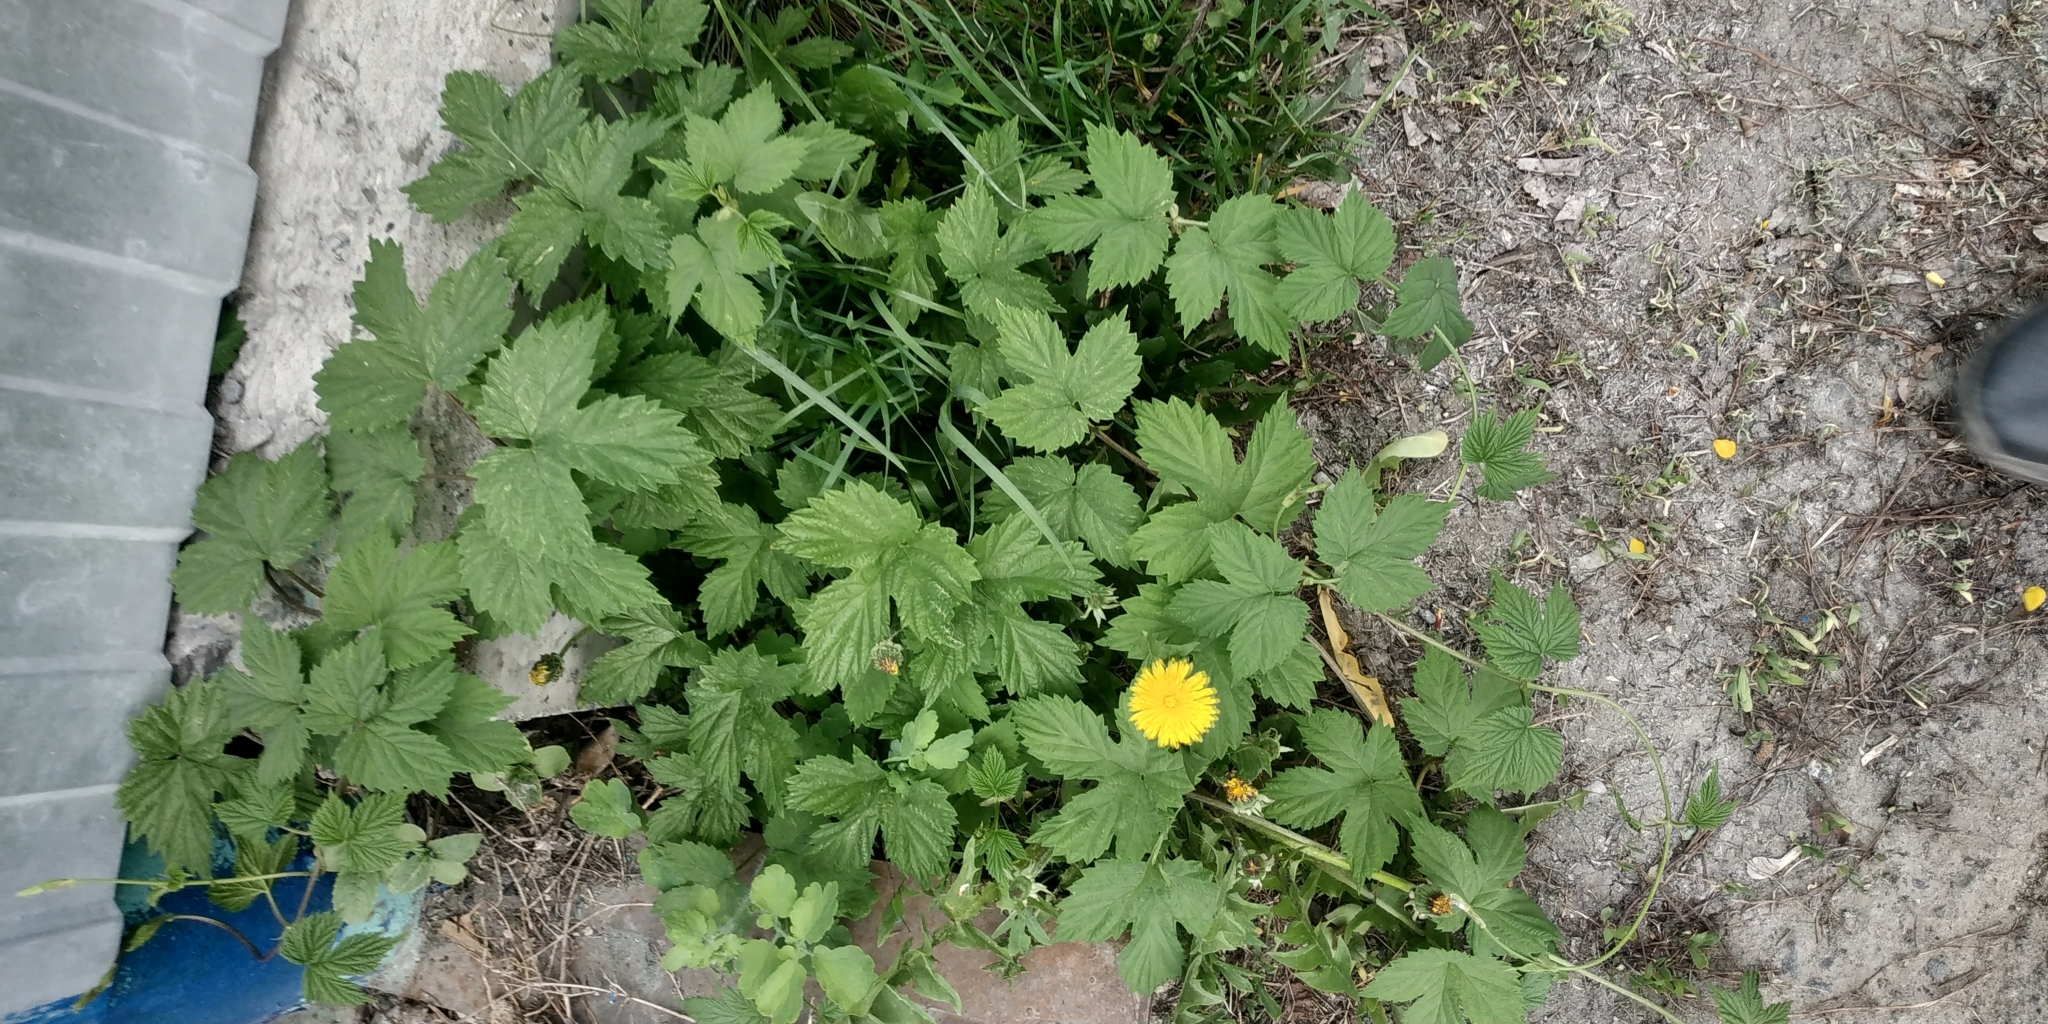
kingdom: Plantae
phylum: Tracheophyta
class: Magnoliopsida
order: Rosales
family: Cannabaceae
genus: Humulus
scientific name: Humulus lupulus
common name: Hop
